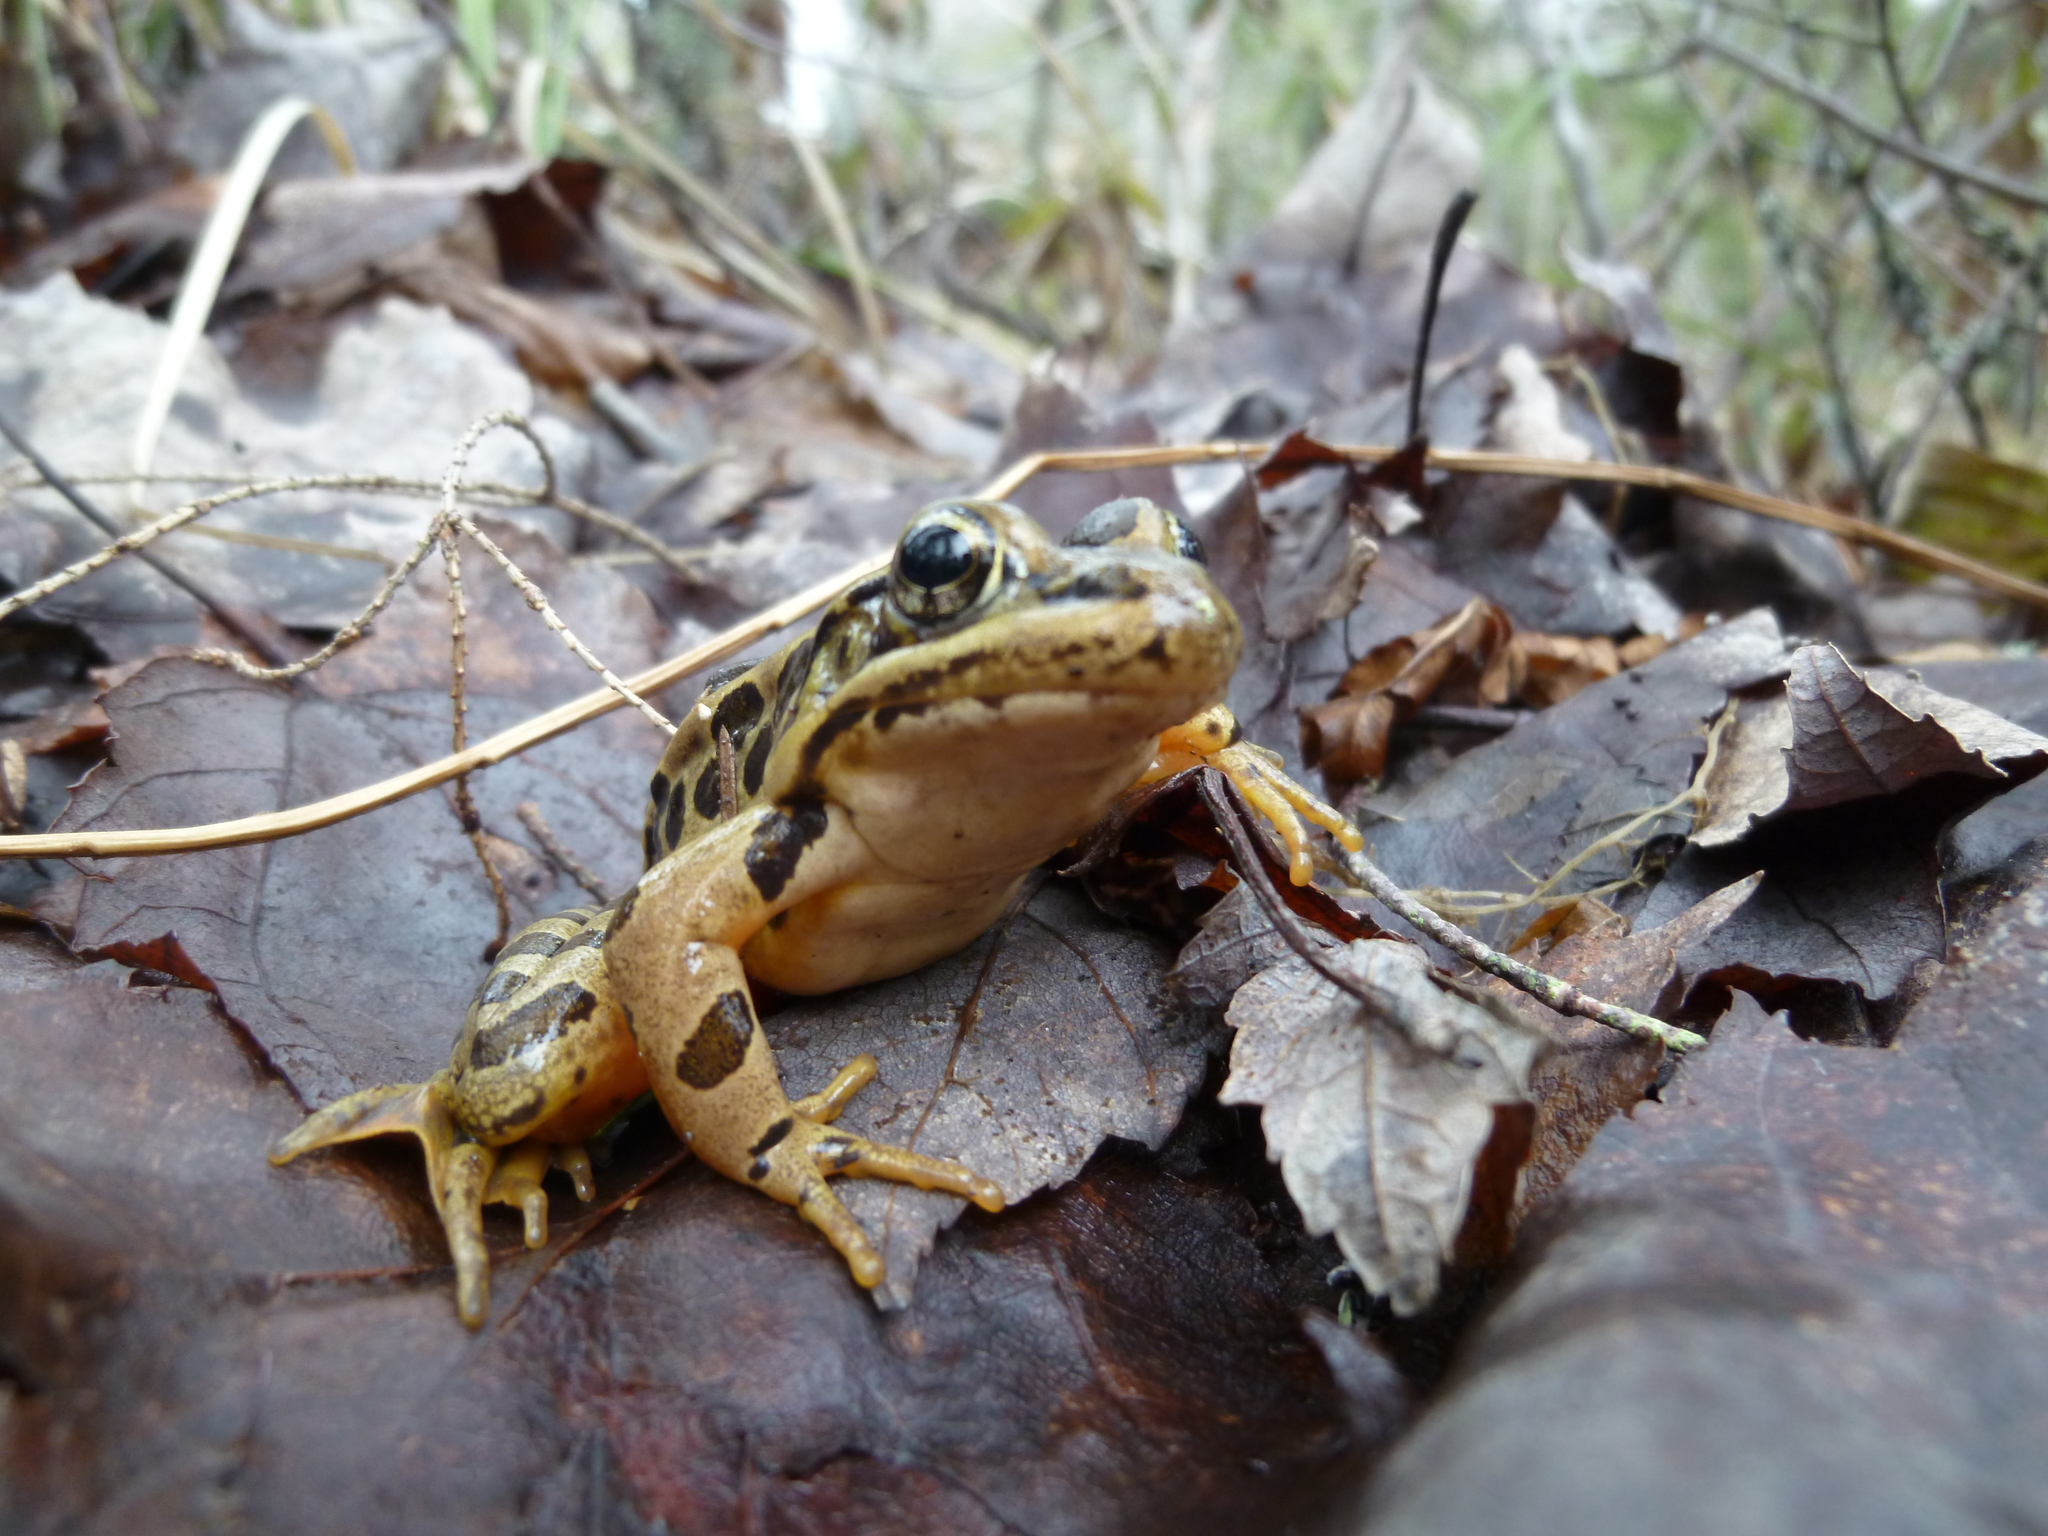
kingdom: Animalia
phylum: Chordata
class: Amphibia
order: Anura
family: Ranidae
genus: Lithobates
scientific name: Lithobates palustris
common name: Pickerel frog
